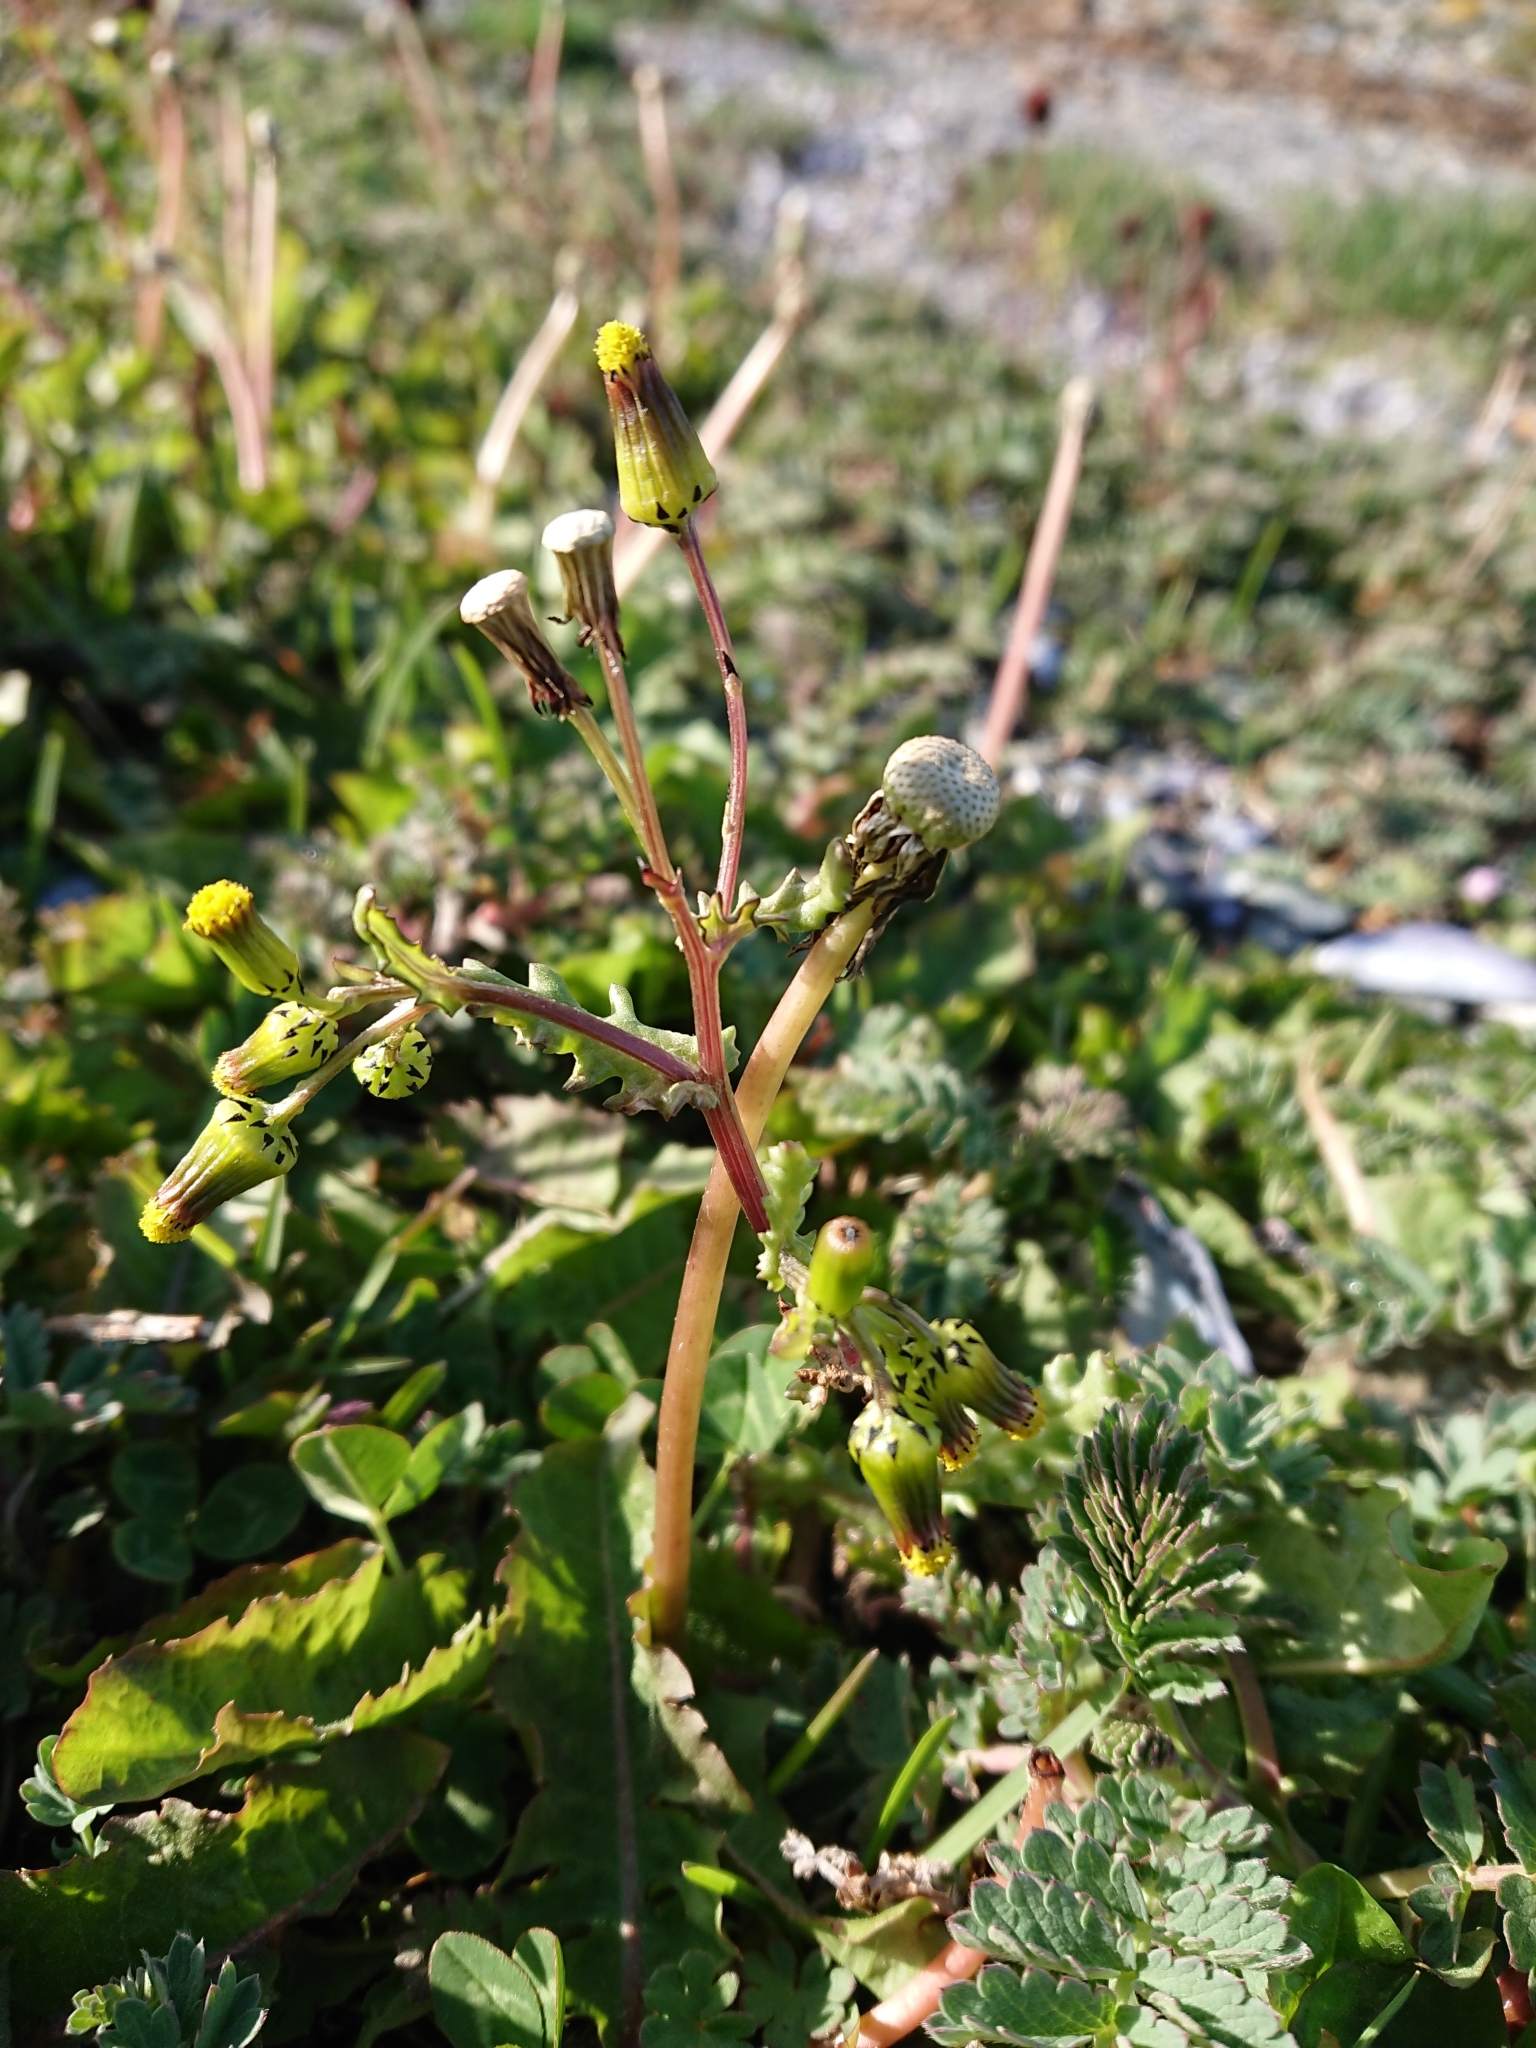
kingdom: Plantae
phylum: Tracheophyta
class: Magnoliopsida
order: Asterales
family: Asteraceae
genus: Senecio
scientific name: Senecio vulgaris
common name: Old-man-in-the-spring
